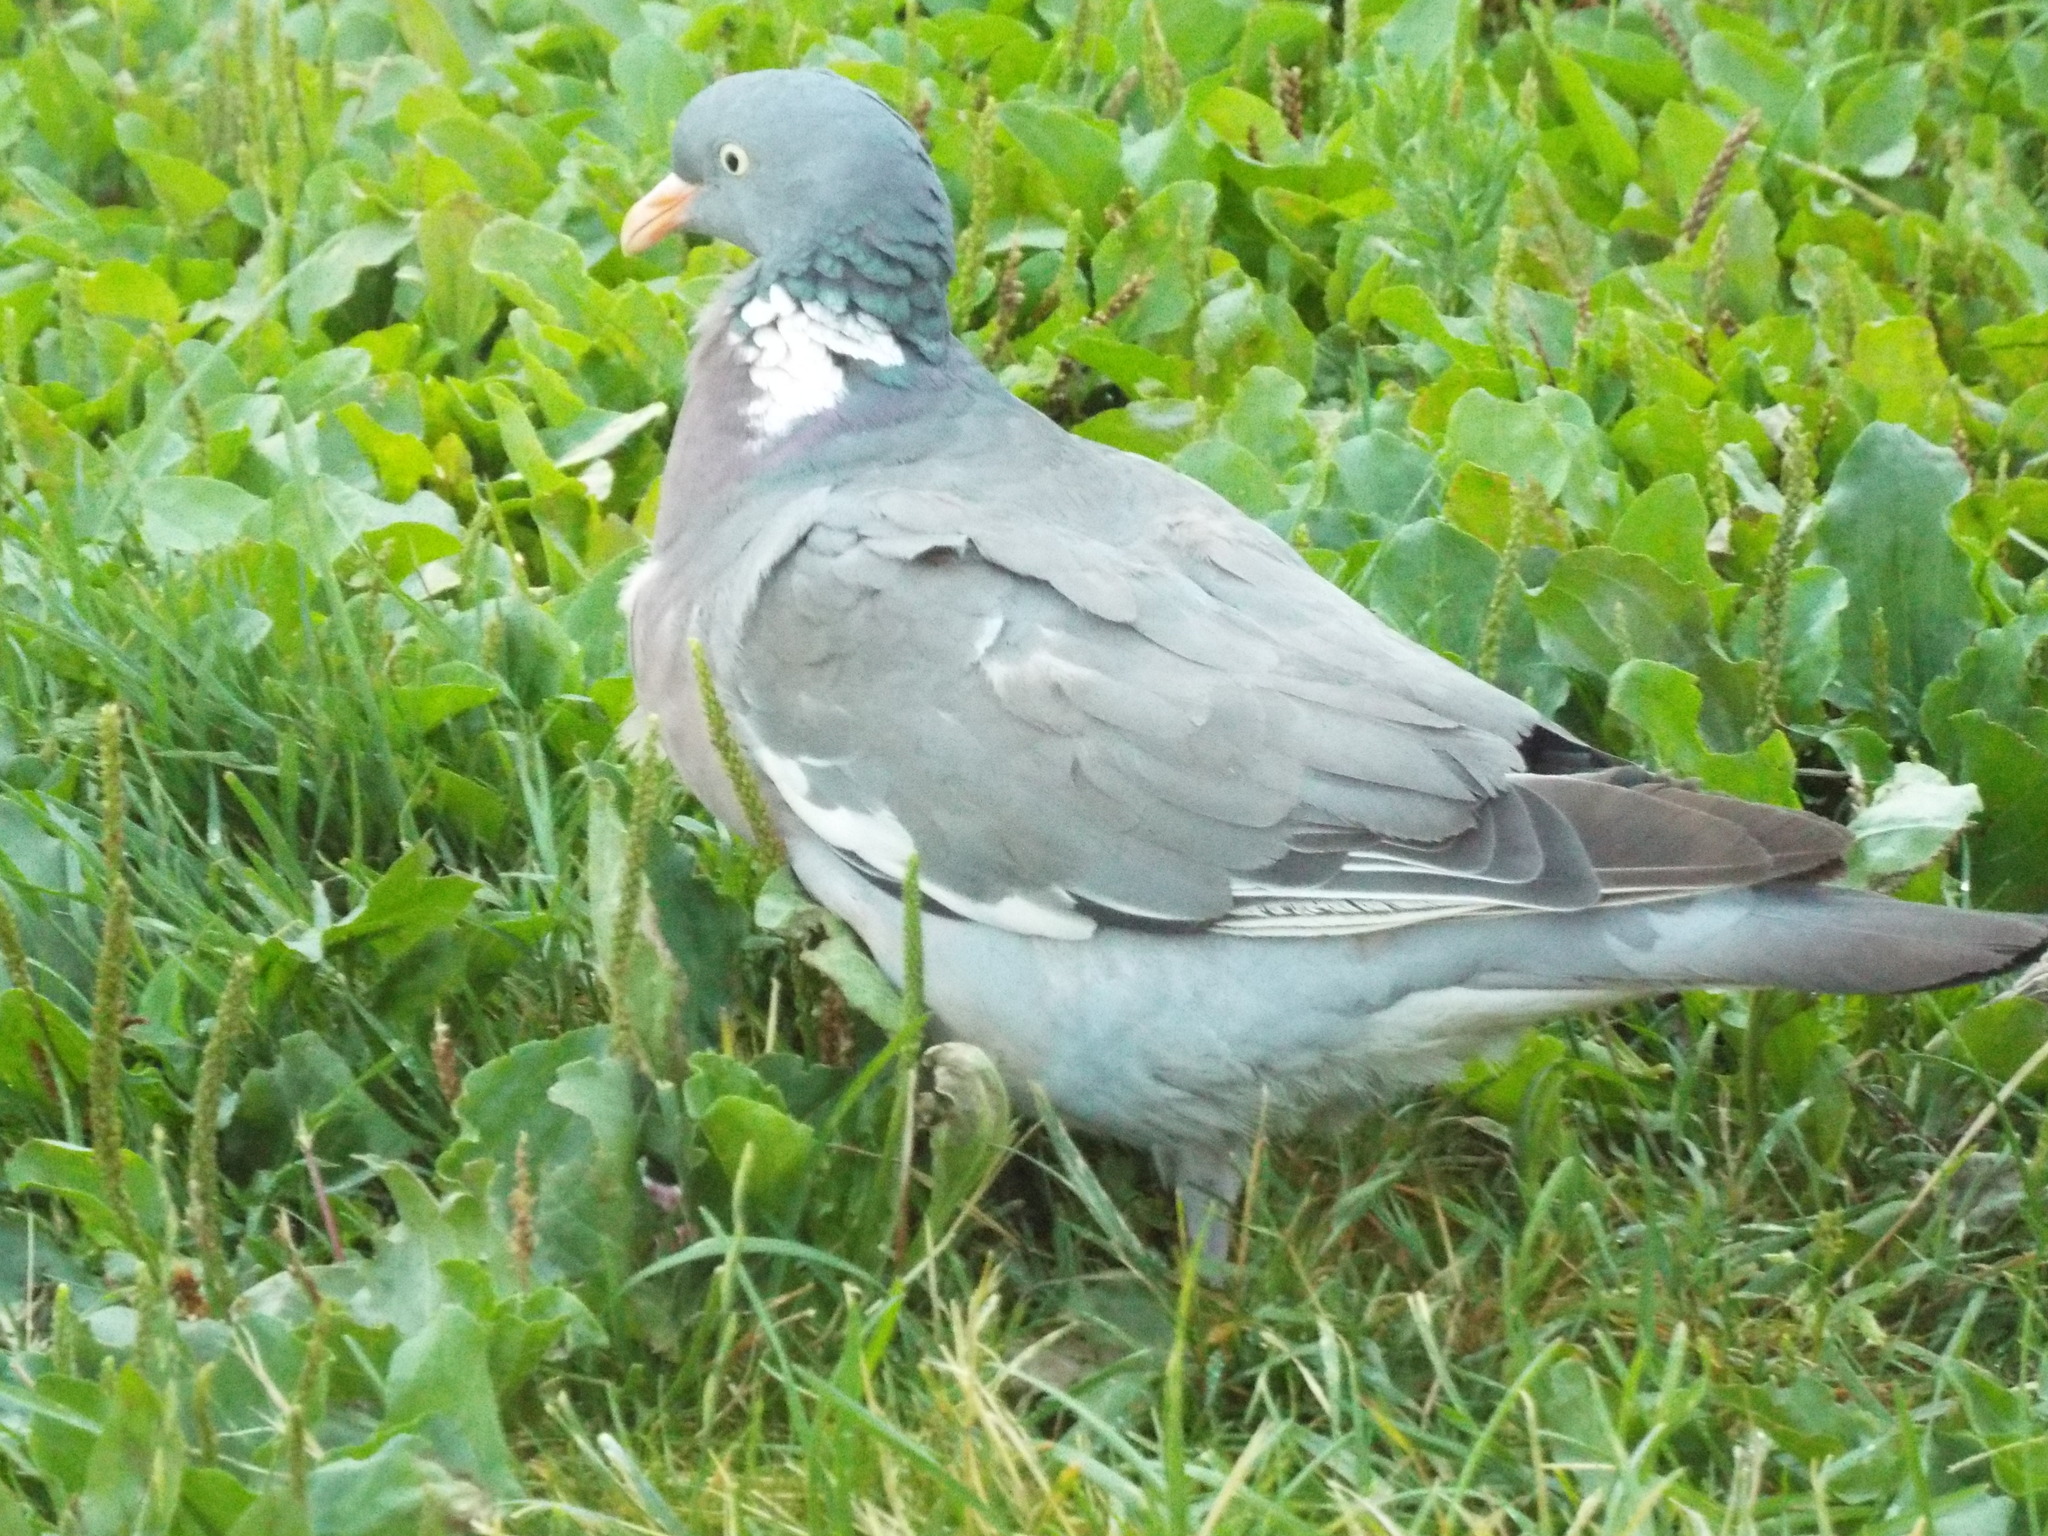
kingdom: Animalia
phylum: Chordata
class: Aves
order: Columbiformes
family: Columbidae
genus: Columba
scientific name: Columba palumbus
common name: Common wood pigeon
